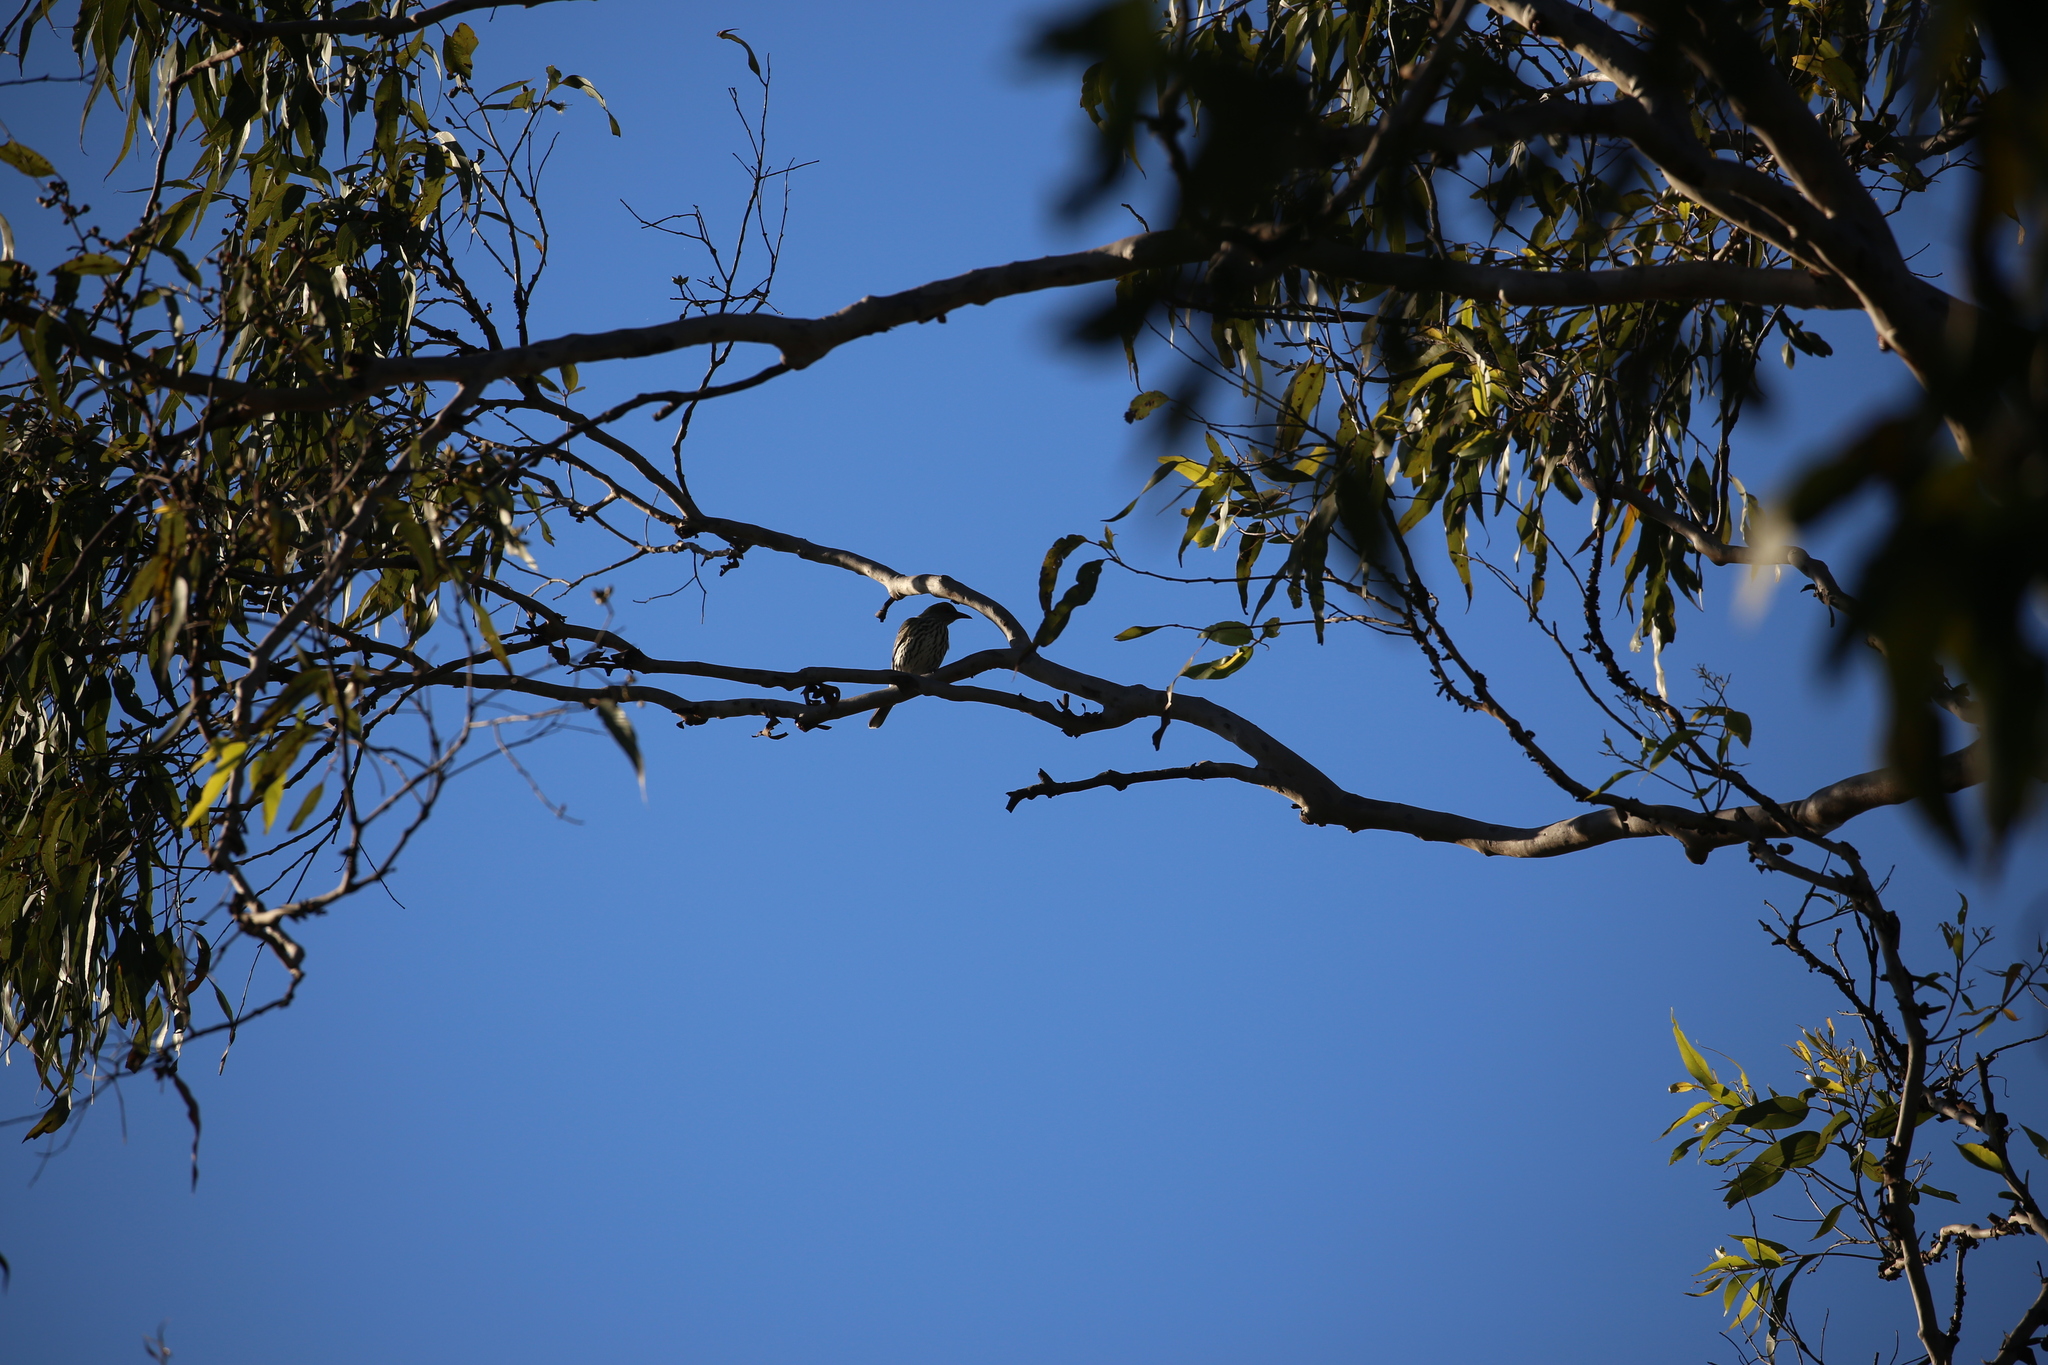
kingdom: Animalia
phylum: Chordata
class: Aves
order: Passeriformes
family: Oriolidae
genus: Oriolus
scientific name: Oriolus sagittatus
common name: Olive-backed oriole
